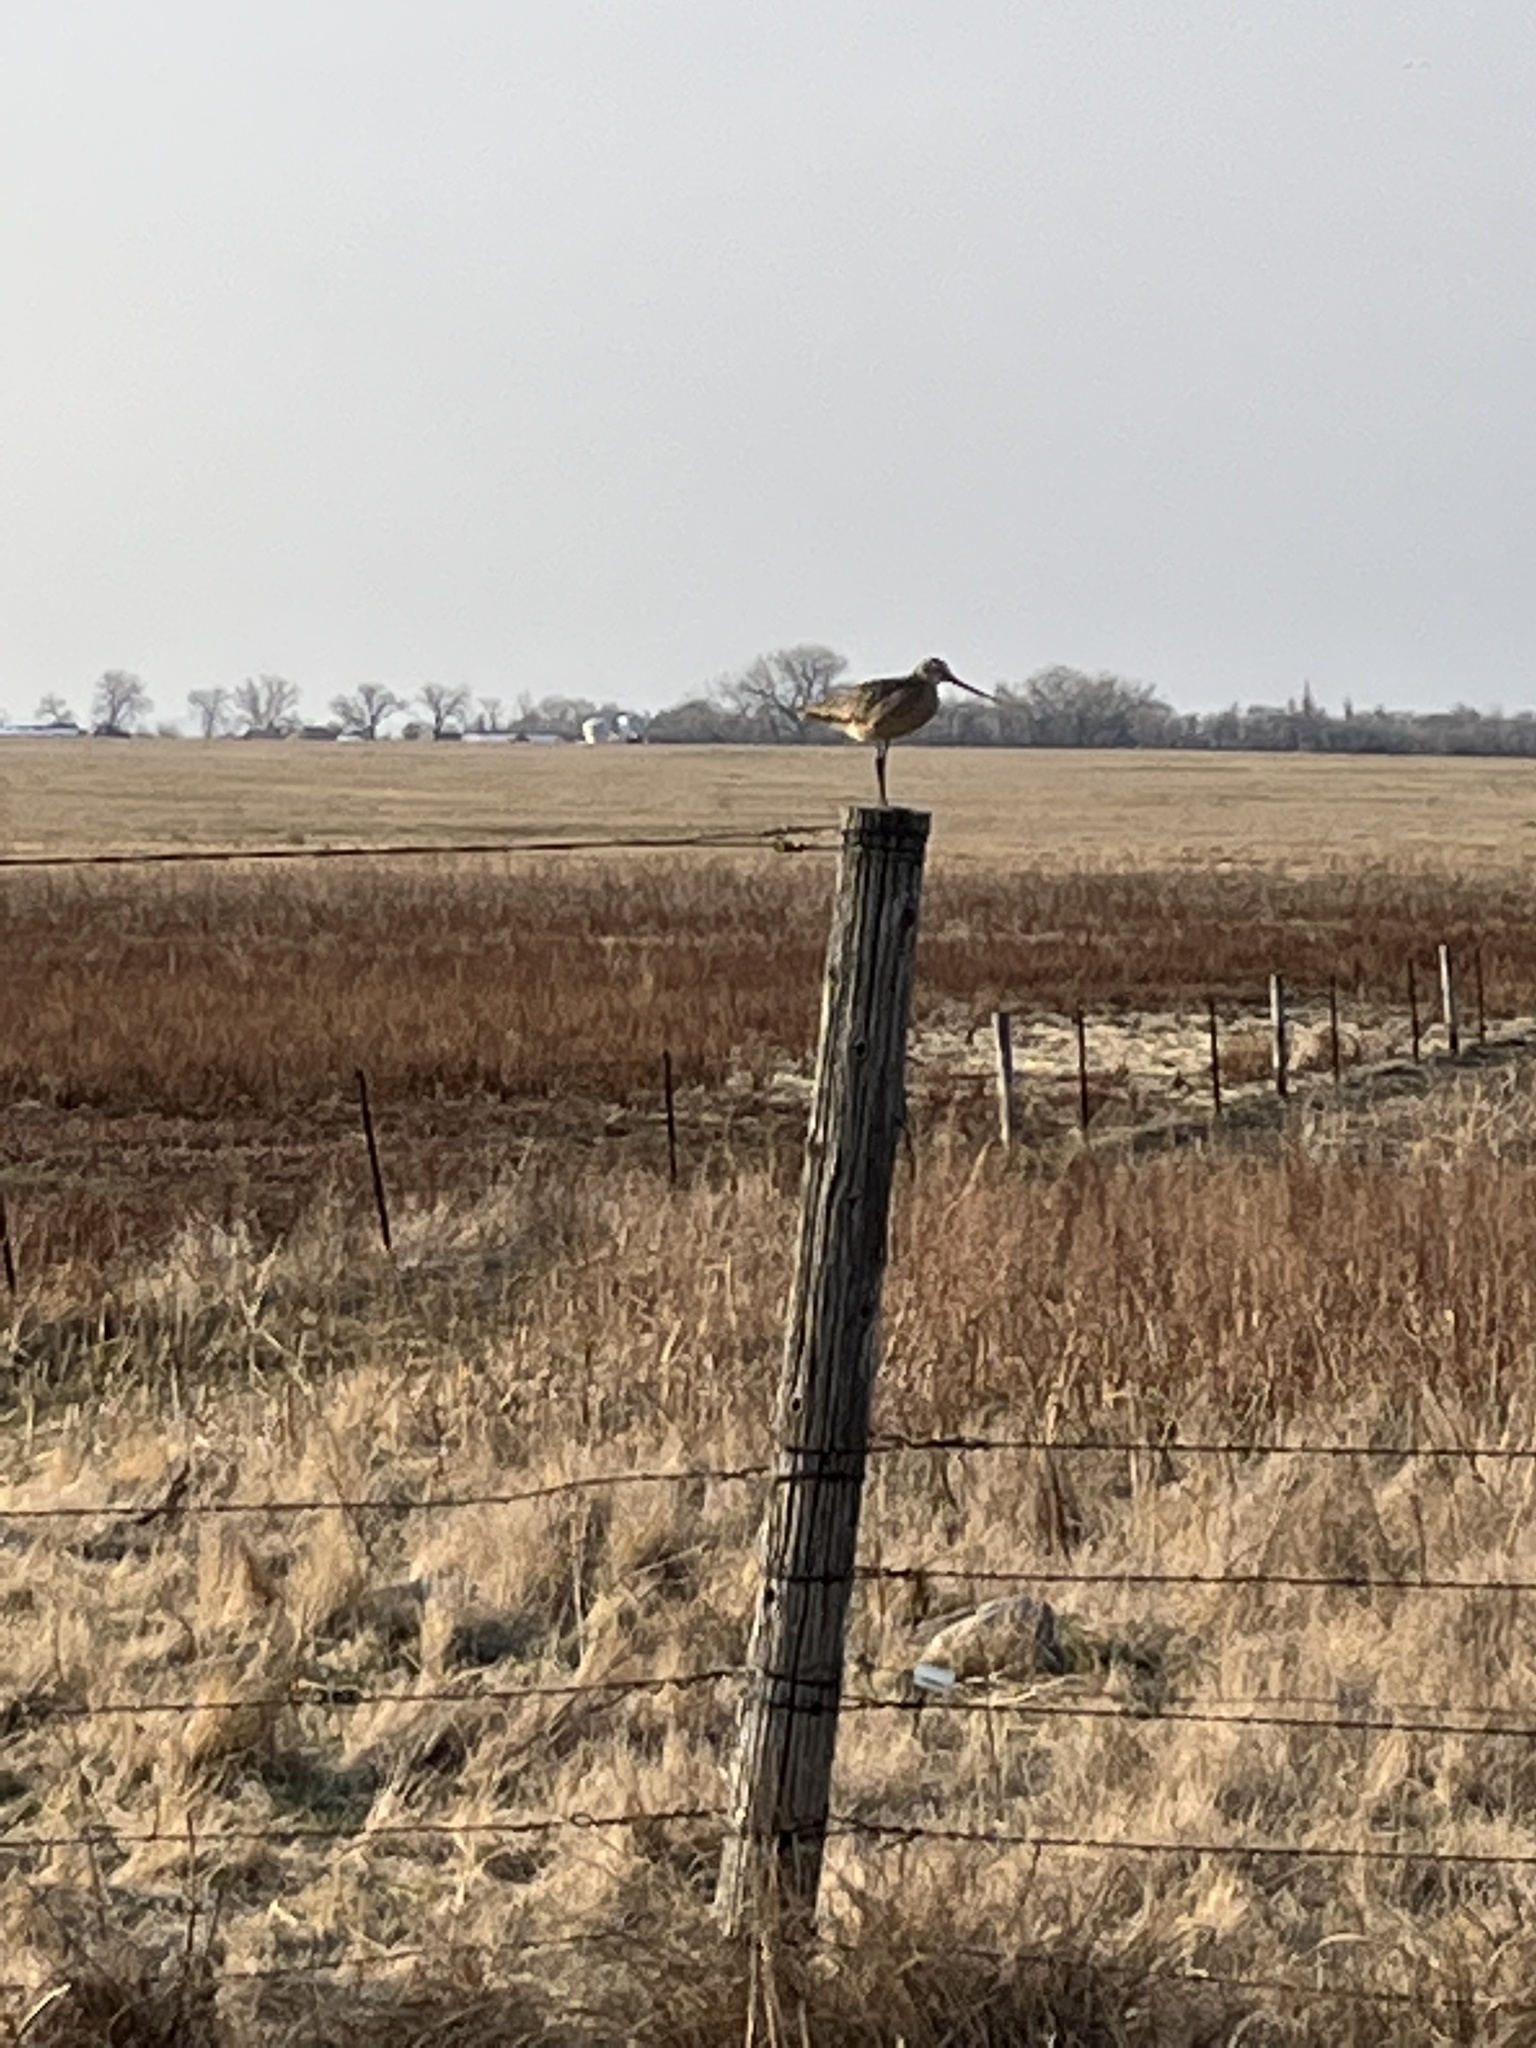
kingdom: Animalia
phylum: Chordata
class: Aves
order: Charadriiformes
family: Scolopacidae
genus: Limosa
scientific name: Limosa fedoa
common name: Marbled godwit
